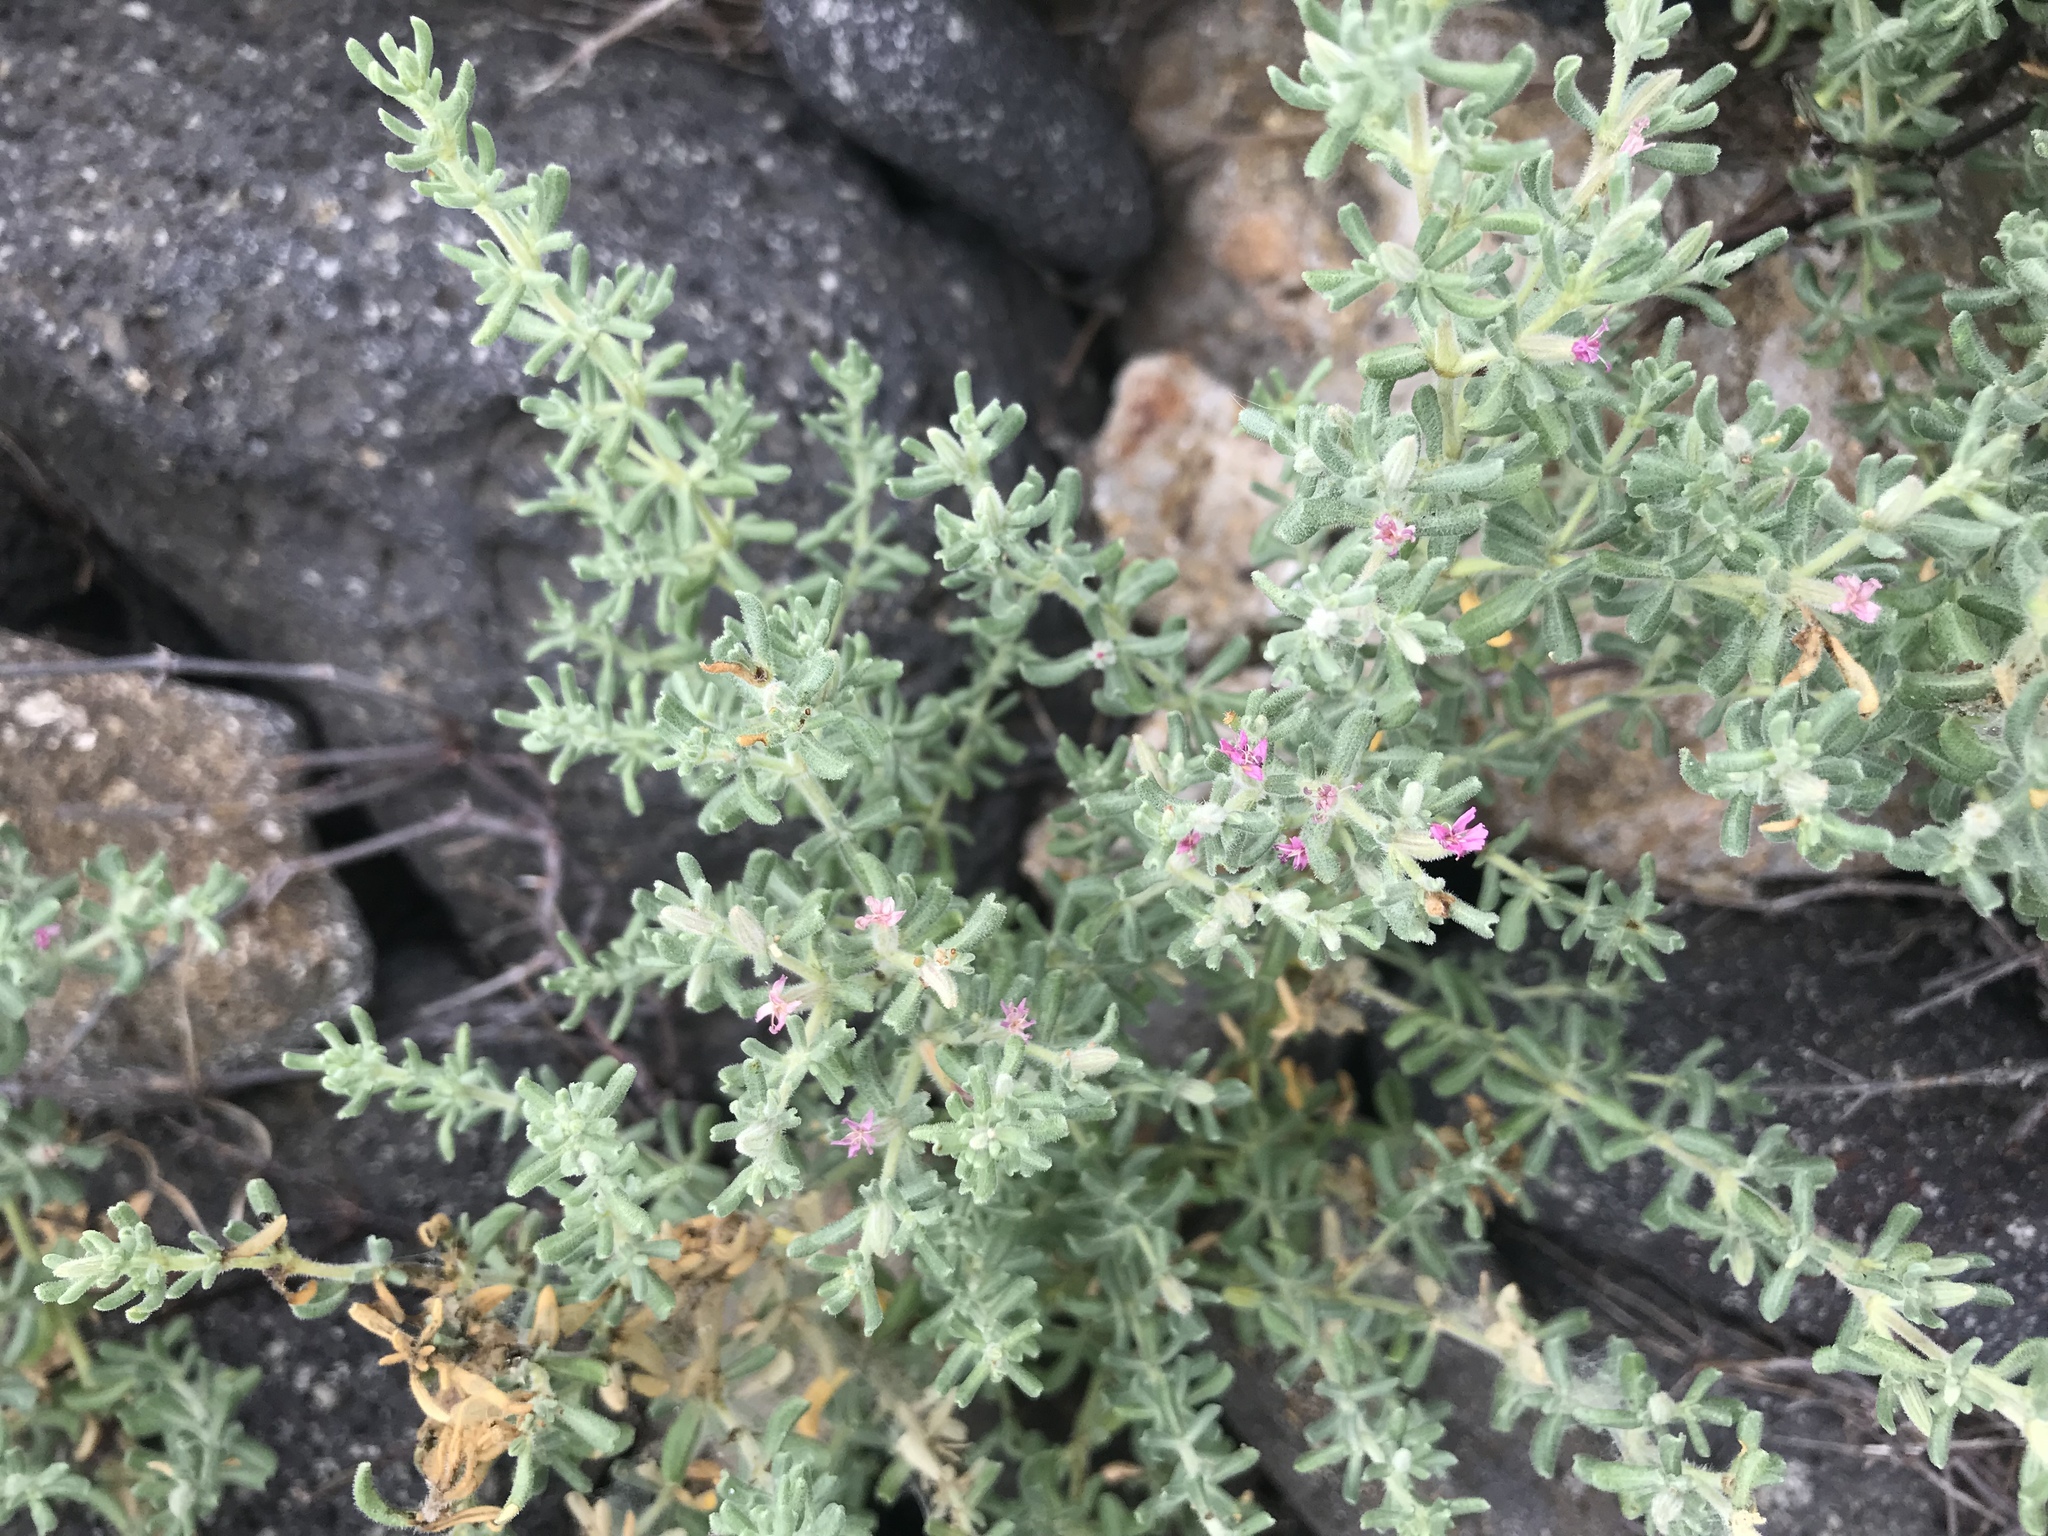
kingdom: Plantae
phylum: Tracheophyta
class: Magnoliopsida
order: Caryophyllales
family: Frankeniaceae
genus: Frankenia
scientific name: Frankenia salina
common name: Alkali seaheath
